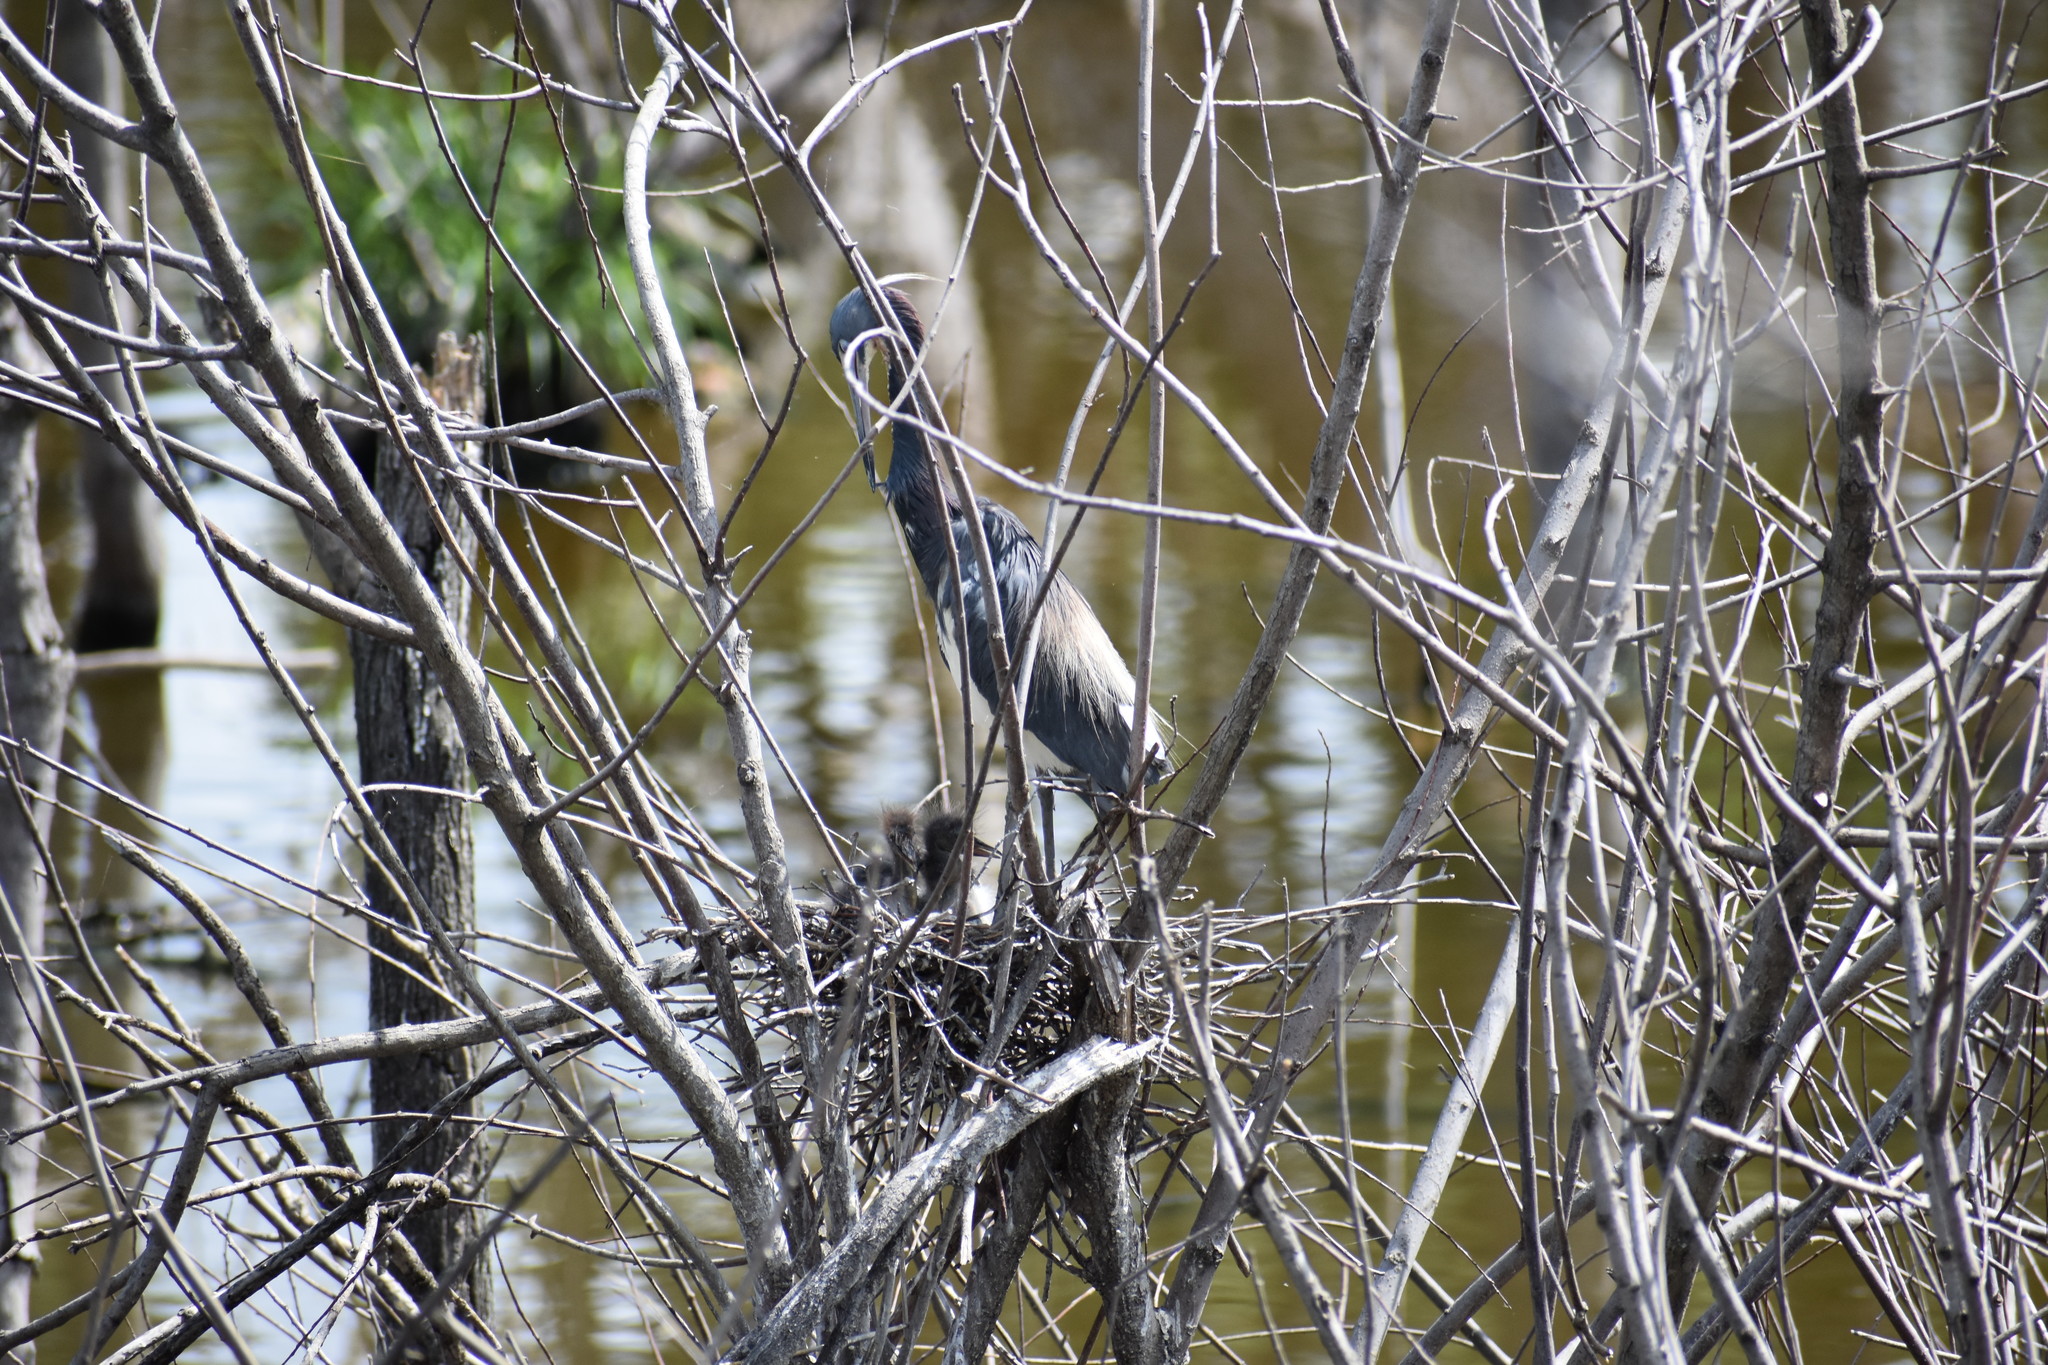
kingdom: Animalia
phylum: Chordata
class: Aves
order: Pelecaniformes
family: Ardeidae
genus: Egretta
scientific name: Egretta tricolor
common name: Tricolored heron
